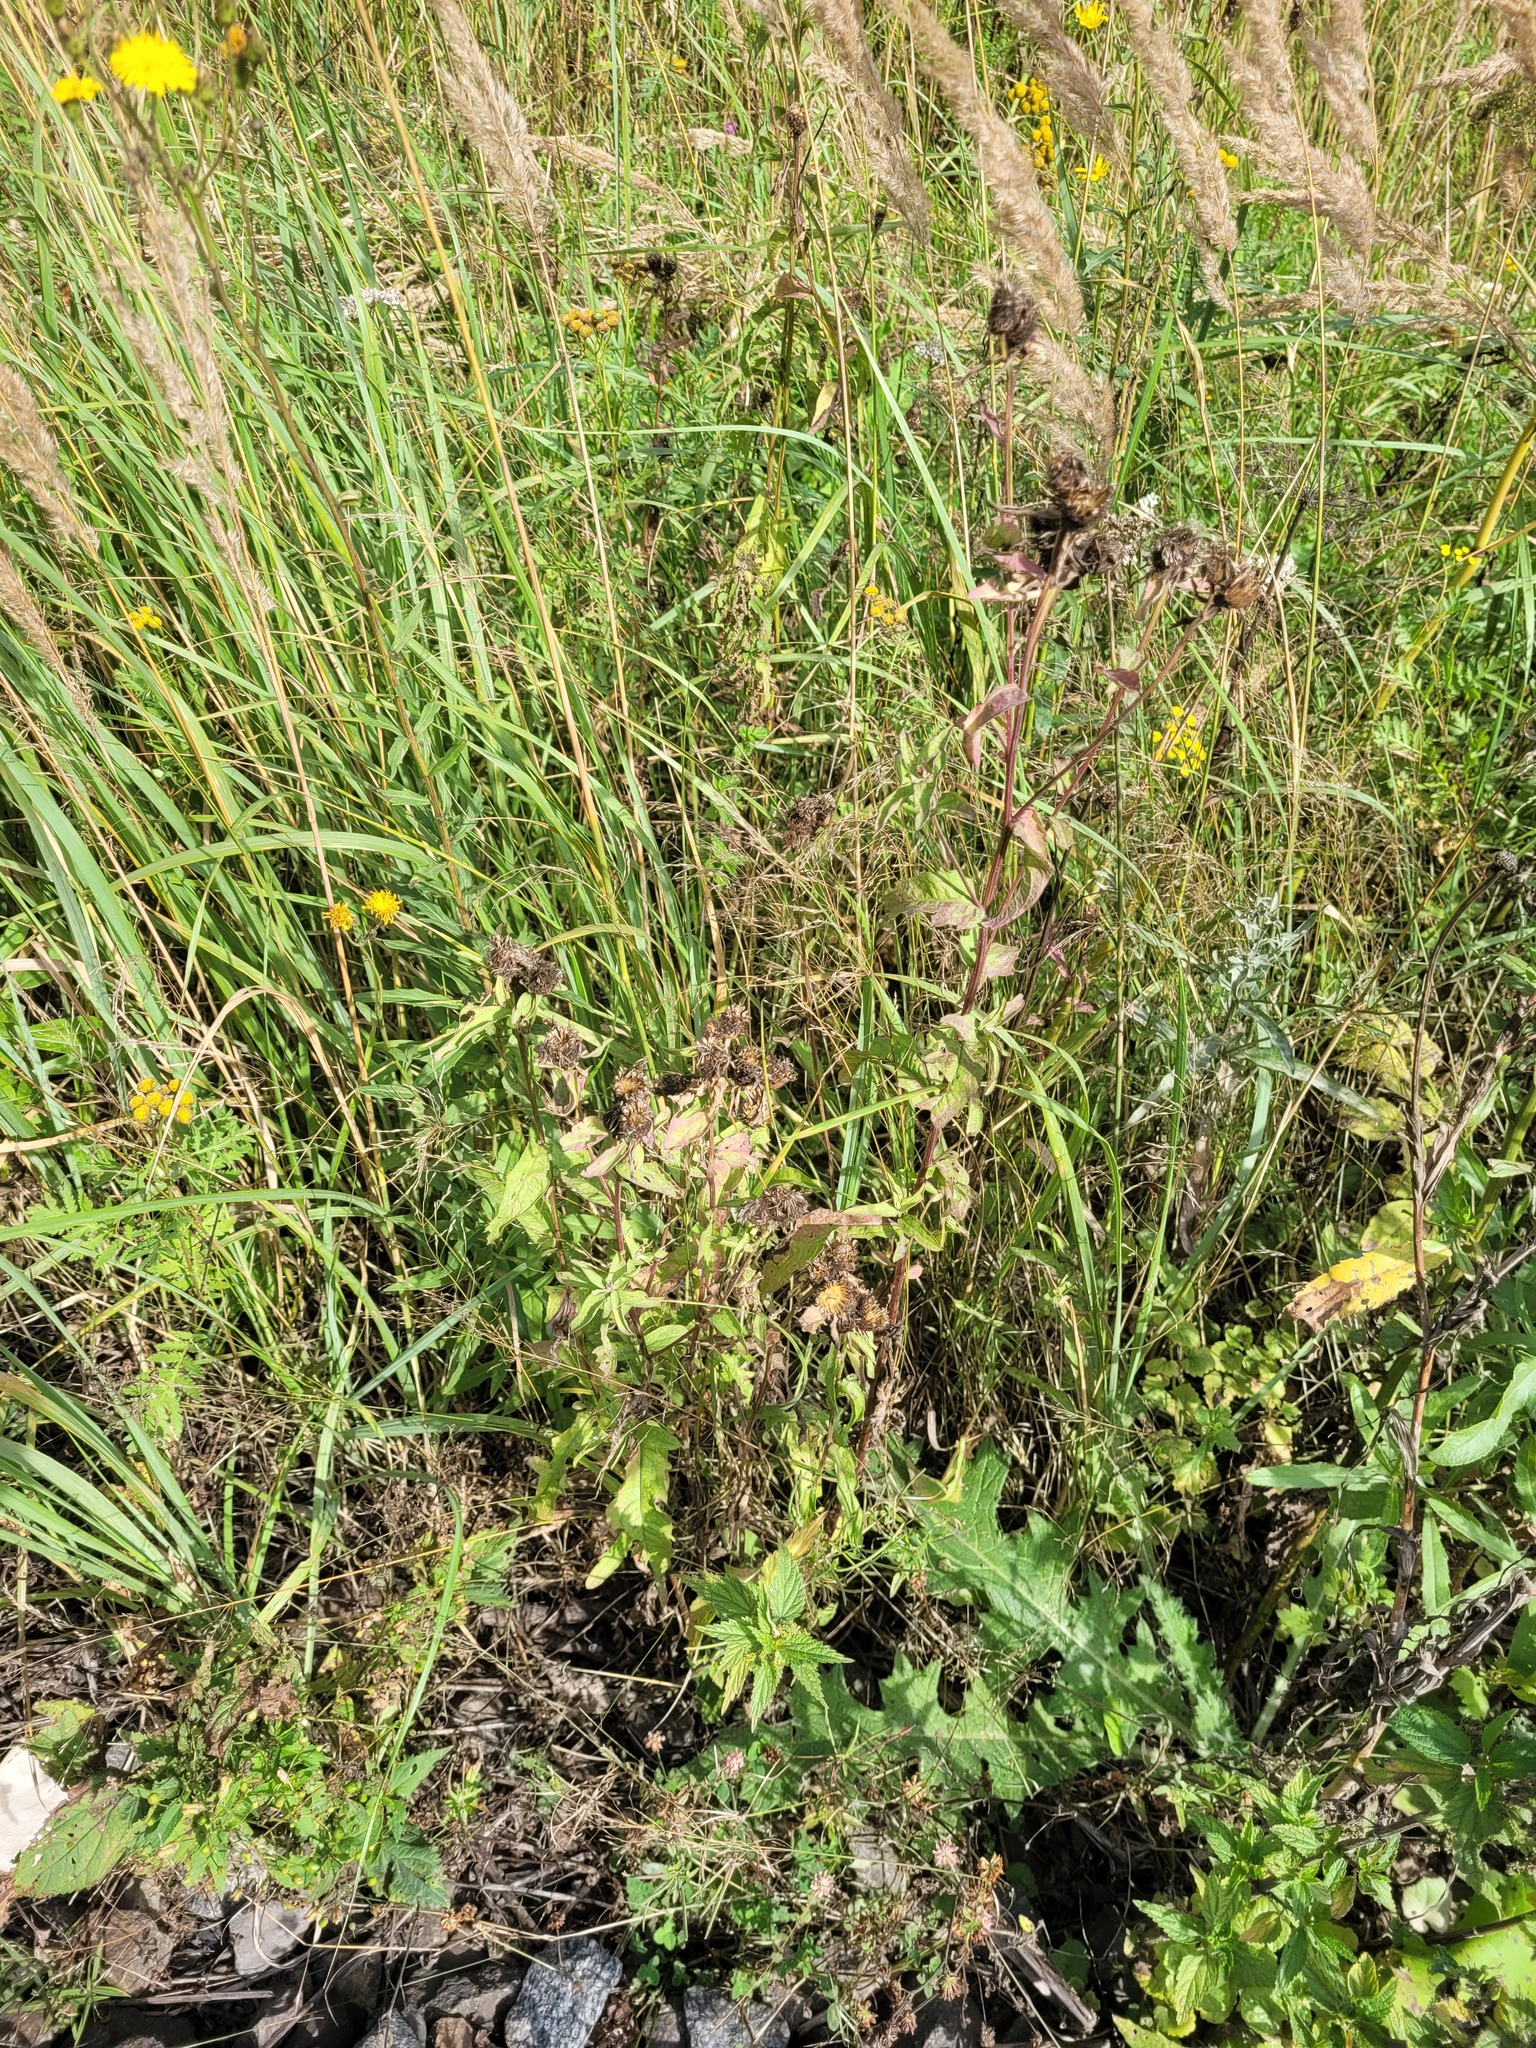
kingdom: Plantae
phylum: Tracheophyta
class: Magnoliopsida
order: Asterales
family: Asteraceae
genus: Centaurea
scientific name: Centaurea pseudophrygia
